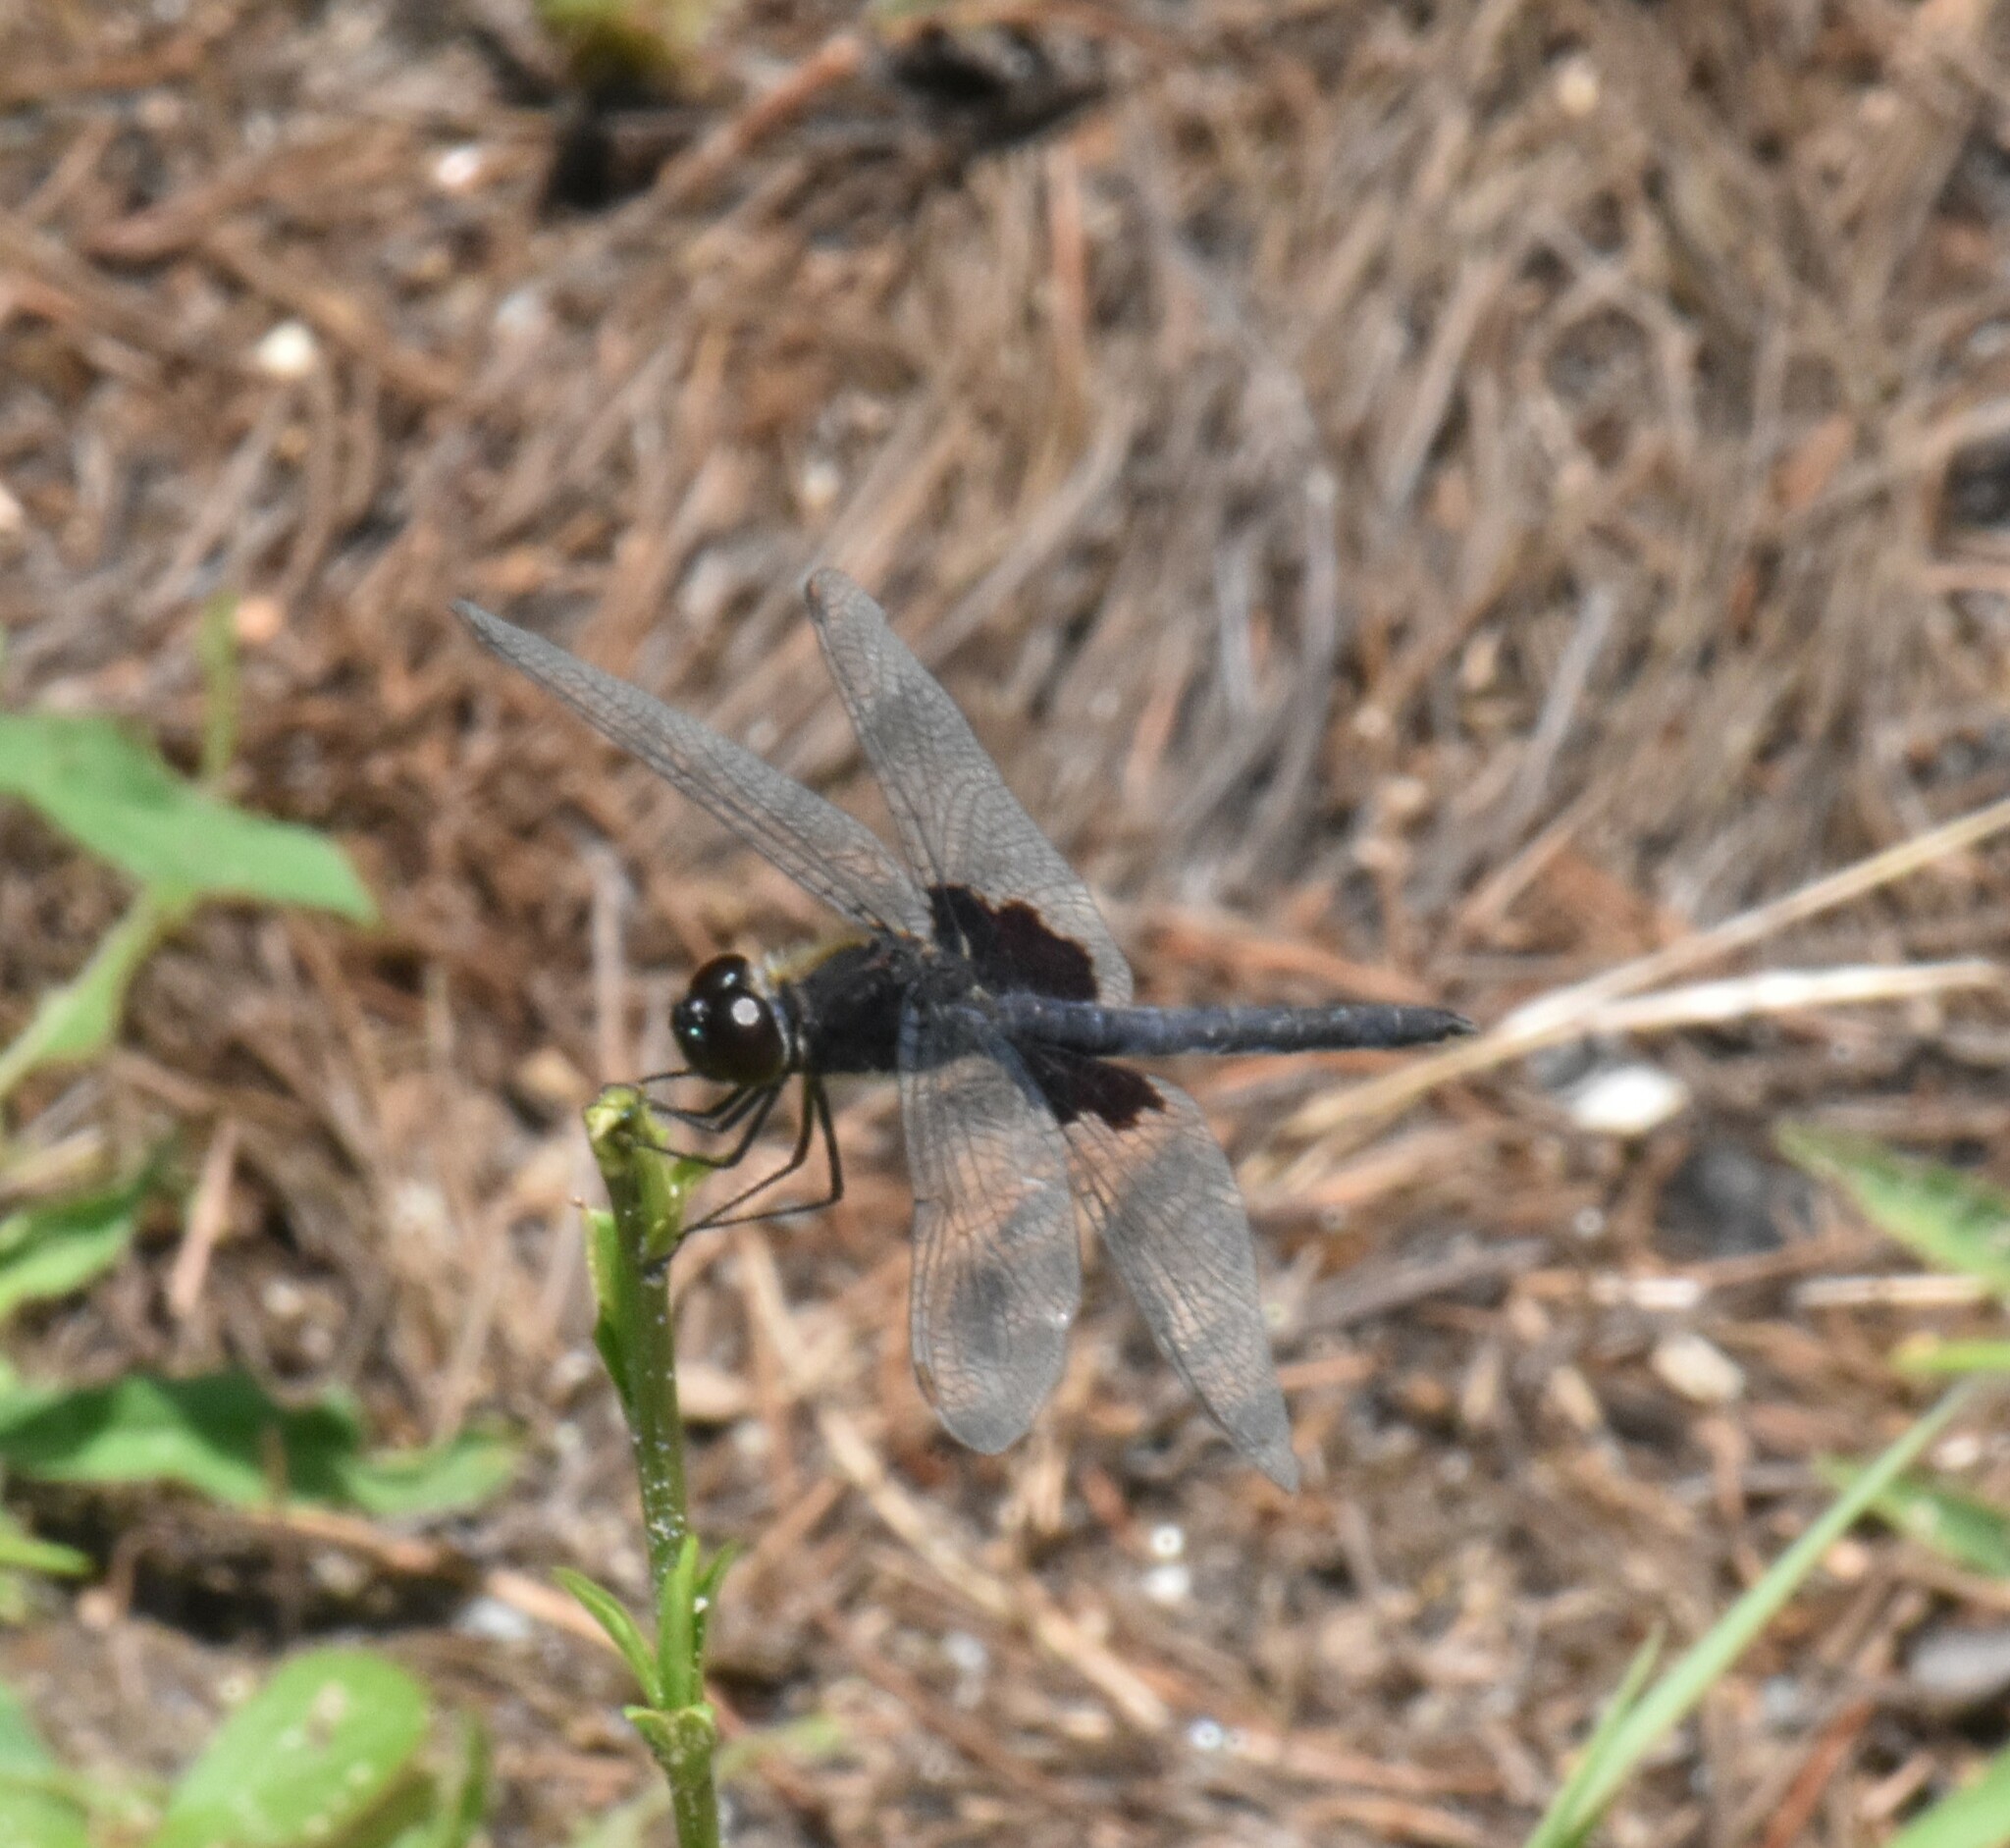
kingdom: Animalia
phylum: Arthropoda
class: Insecta
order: Odonata
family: Libellulidae
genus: Celithemis
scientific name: Celithemis martha
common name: Martha's pennant
